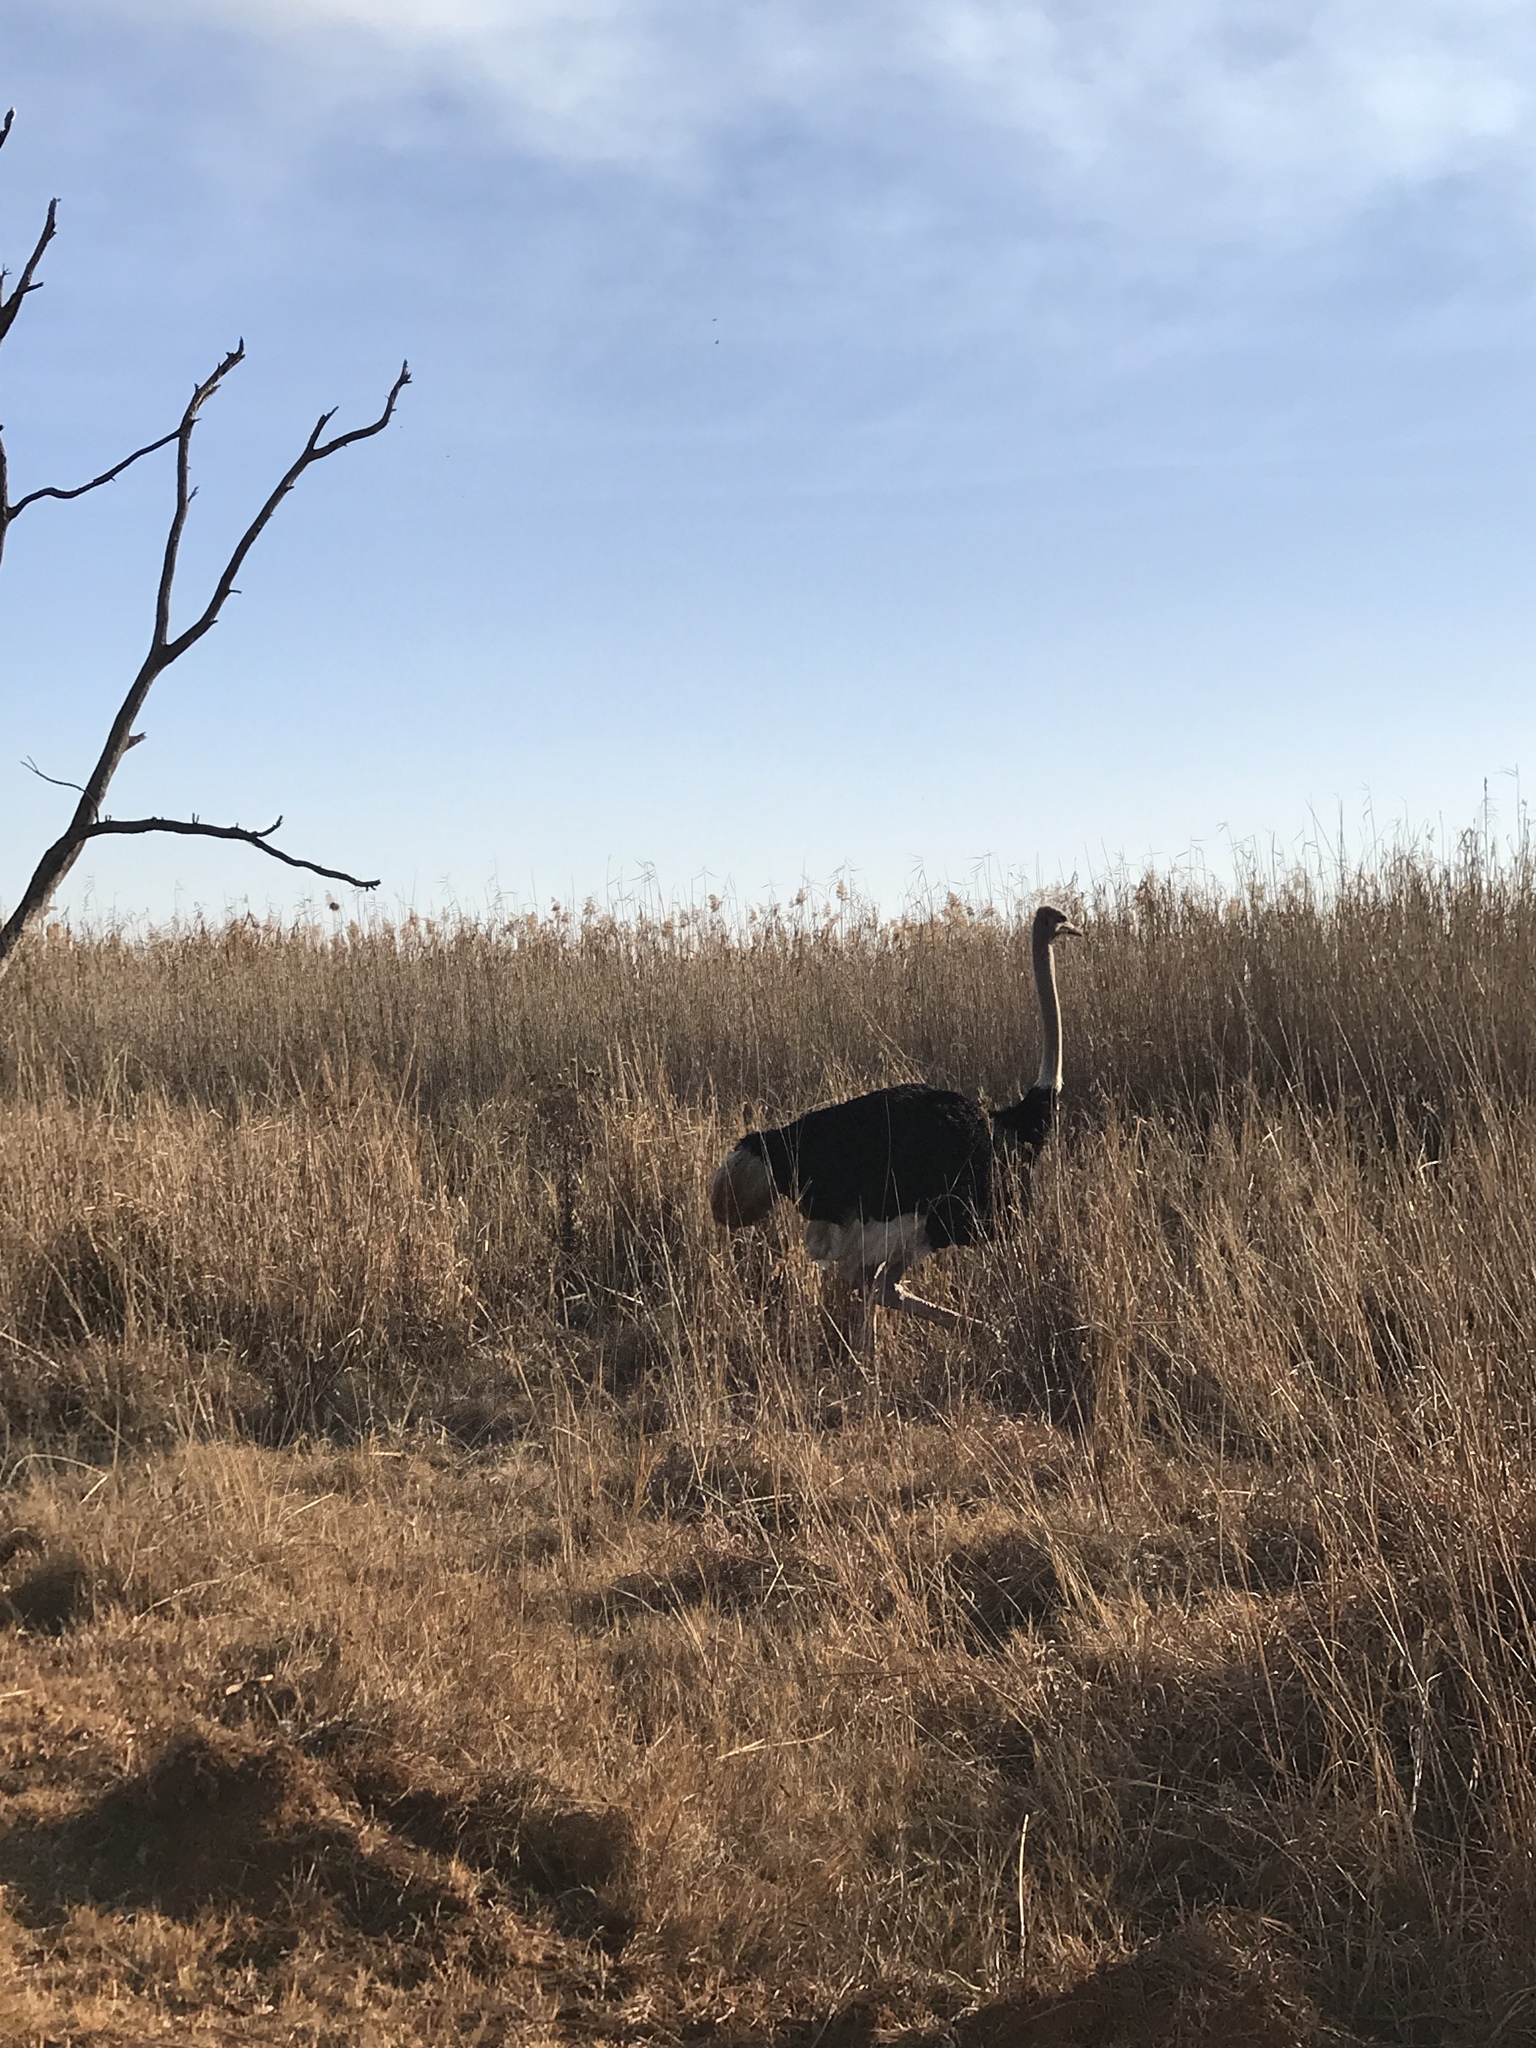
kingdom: Animalia
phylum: Chordata
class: Aves
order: Struthioniformes
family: Struthionidae
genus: Struthio
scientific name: Struthio camelus
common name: Common ostrich
